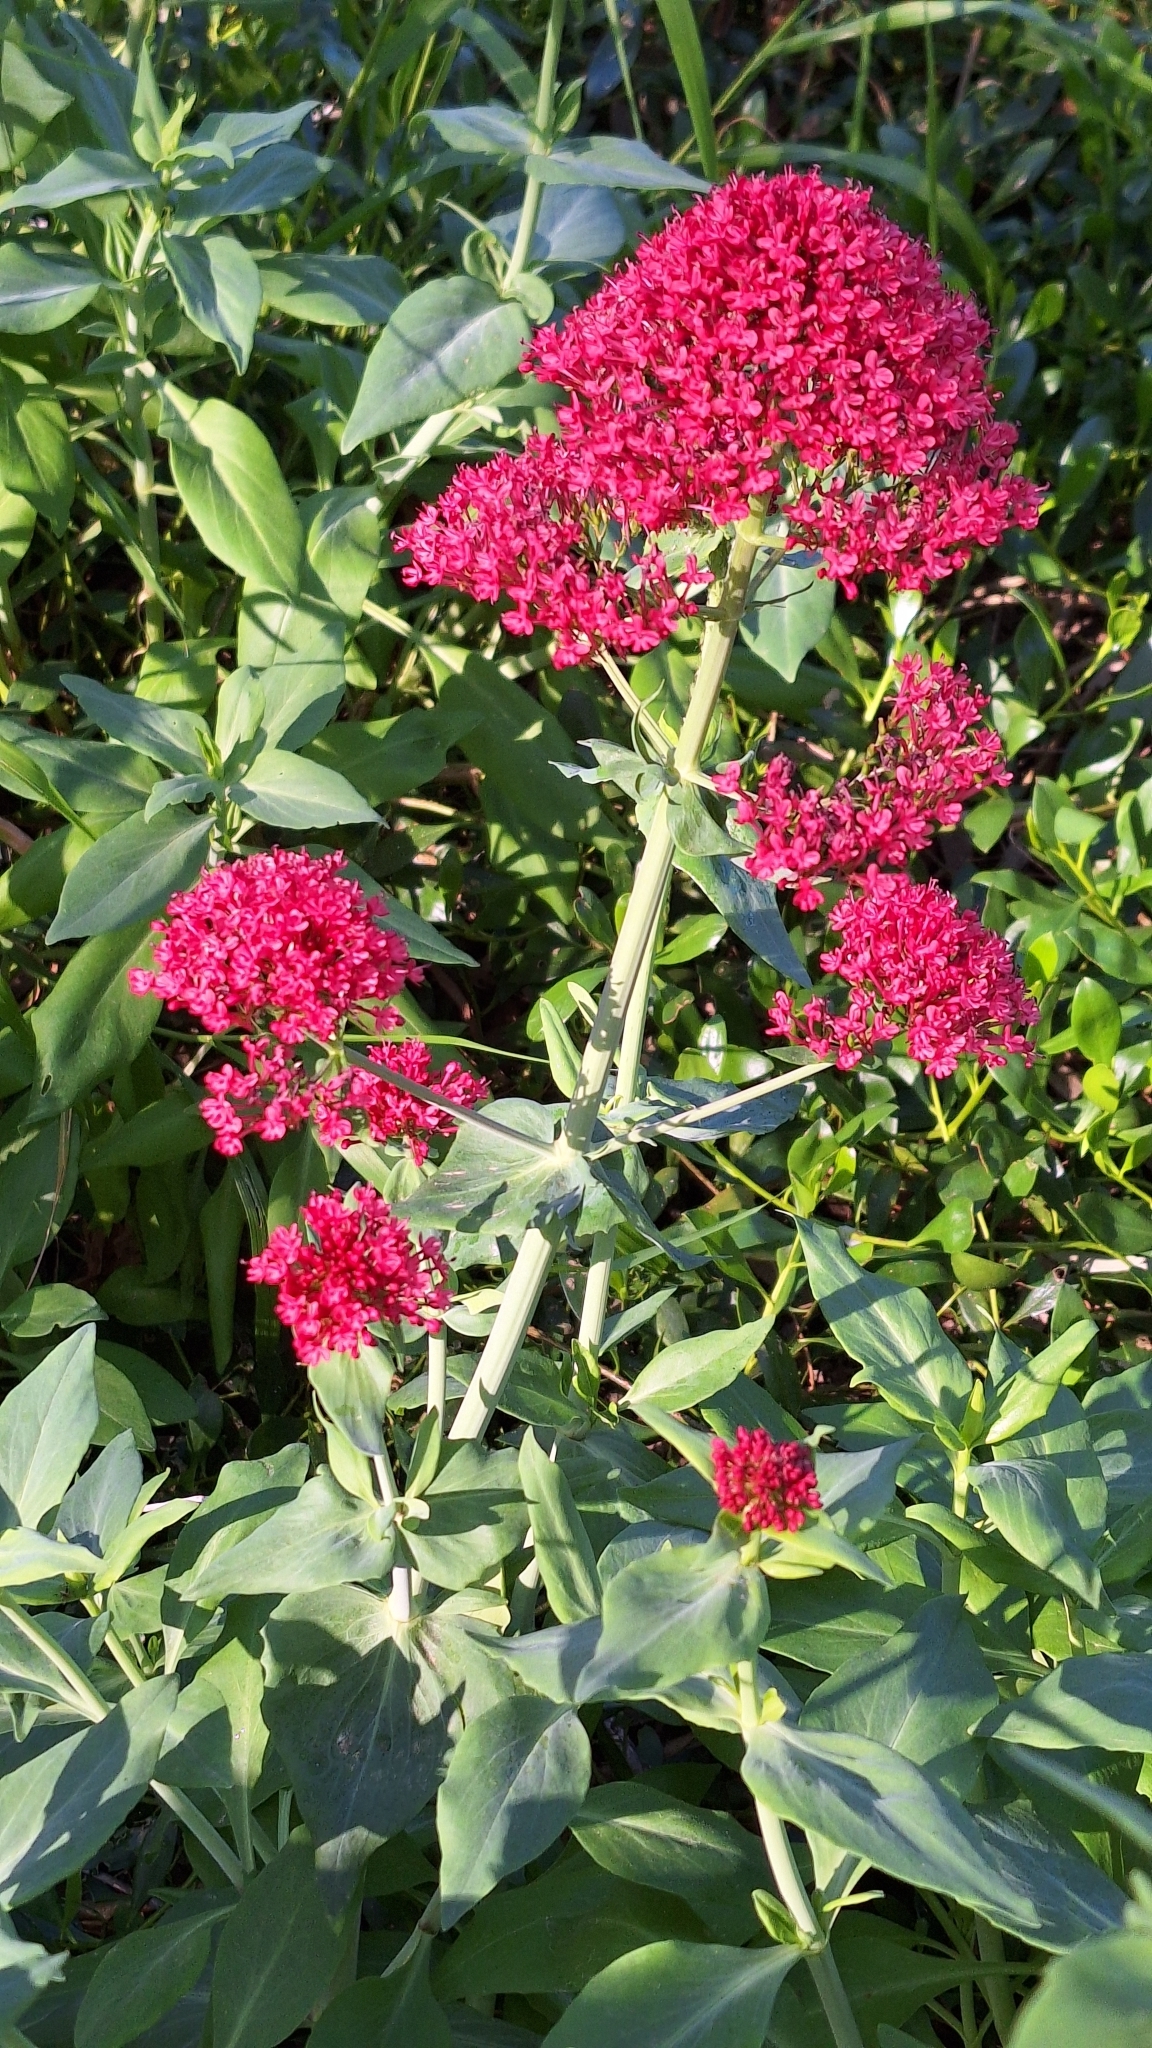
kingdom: Plantae
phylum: Tracheophyta
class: Magnoliopsida
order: Dipsacales
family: Caprifoliaceae
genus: Centranthus
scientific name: Centranthus ruber
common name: Red valerian
